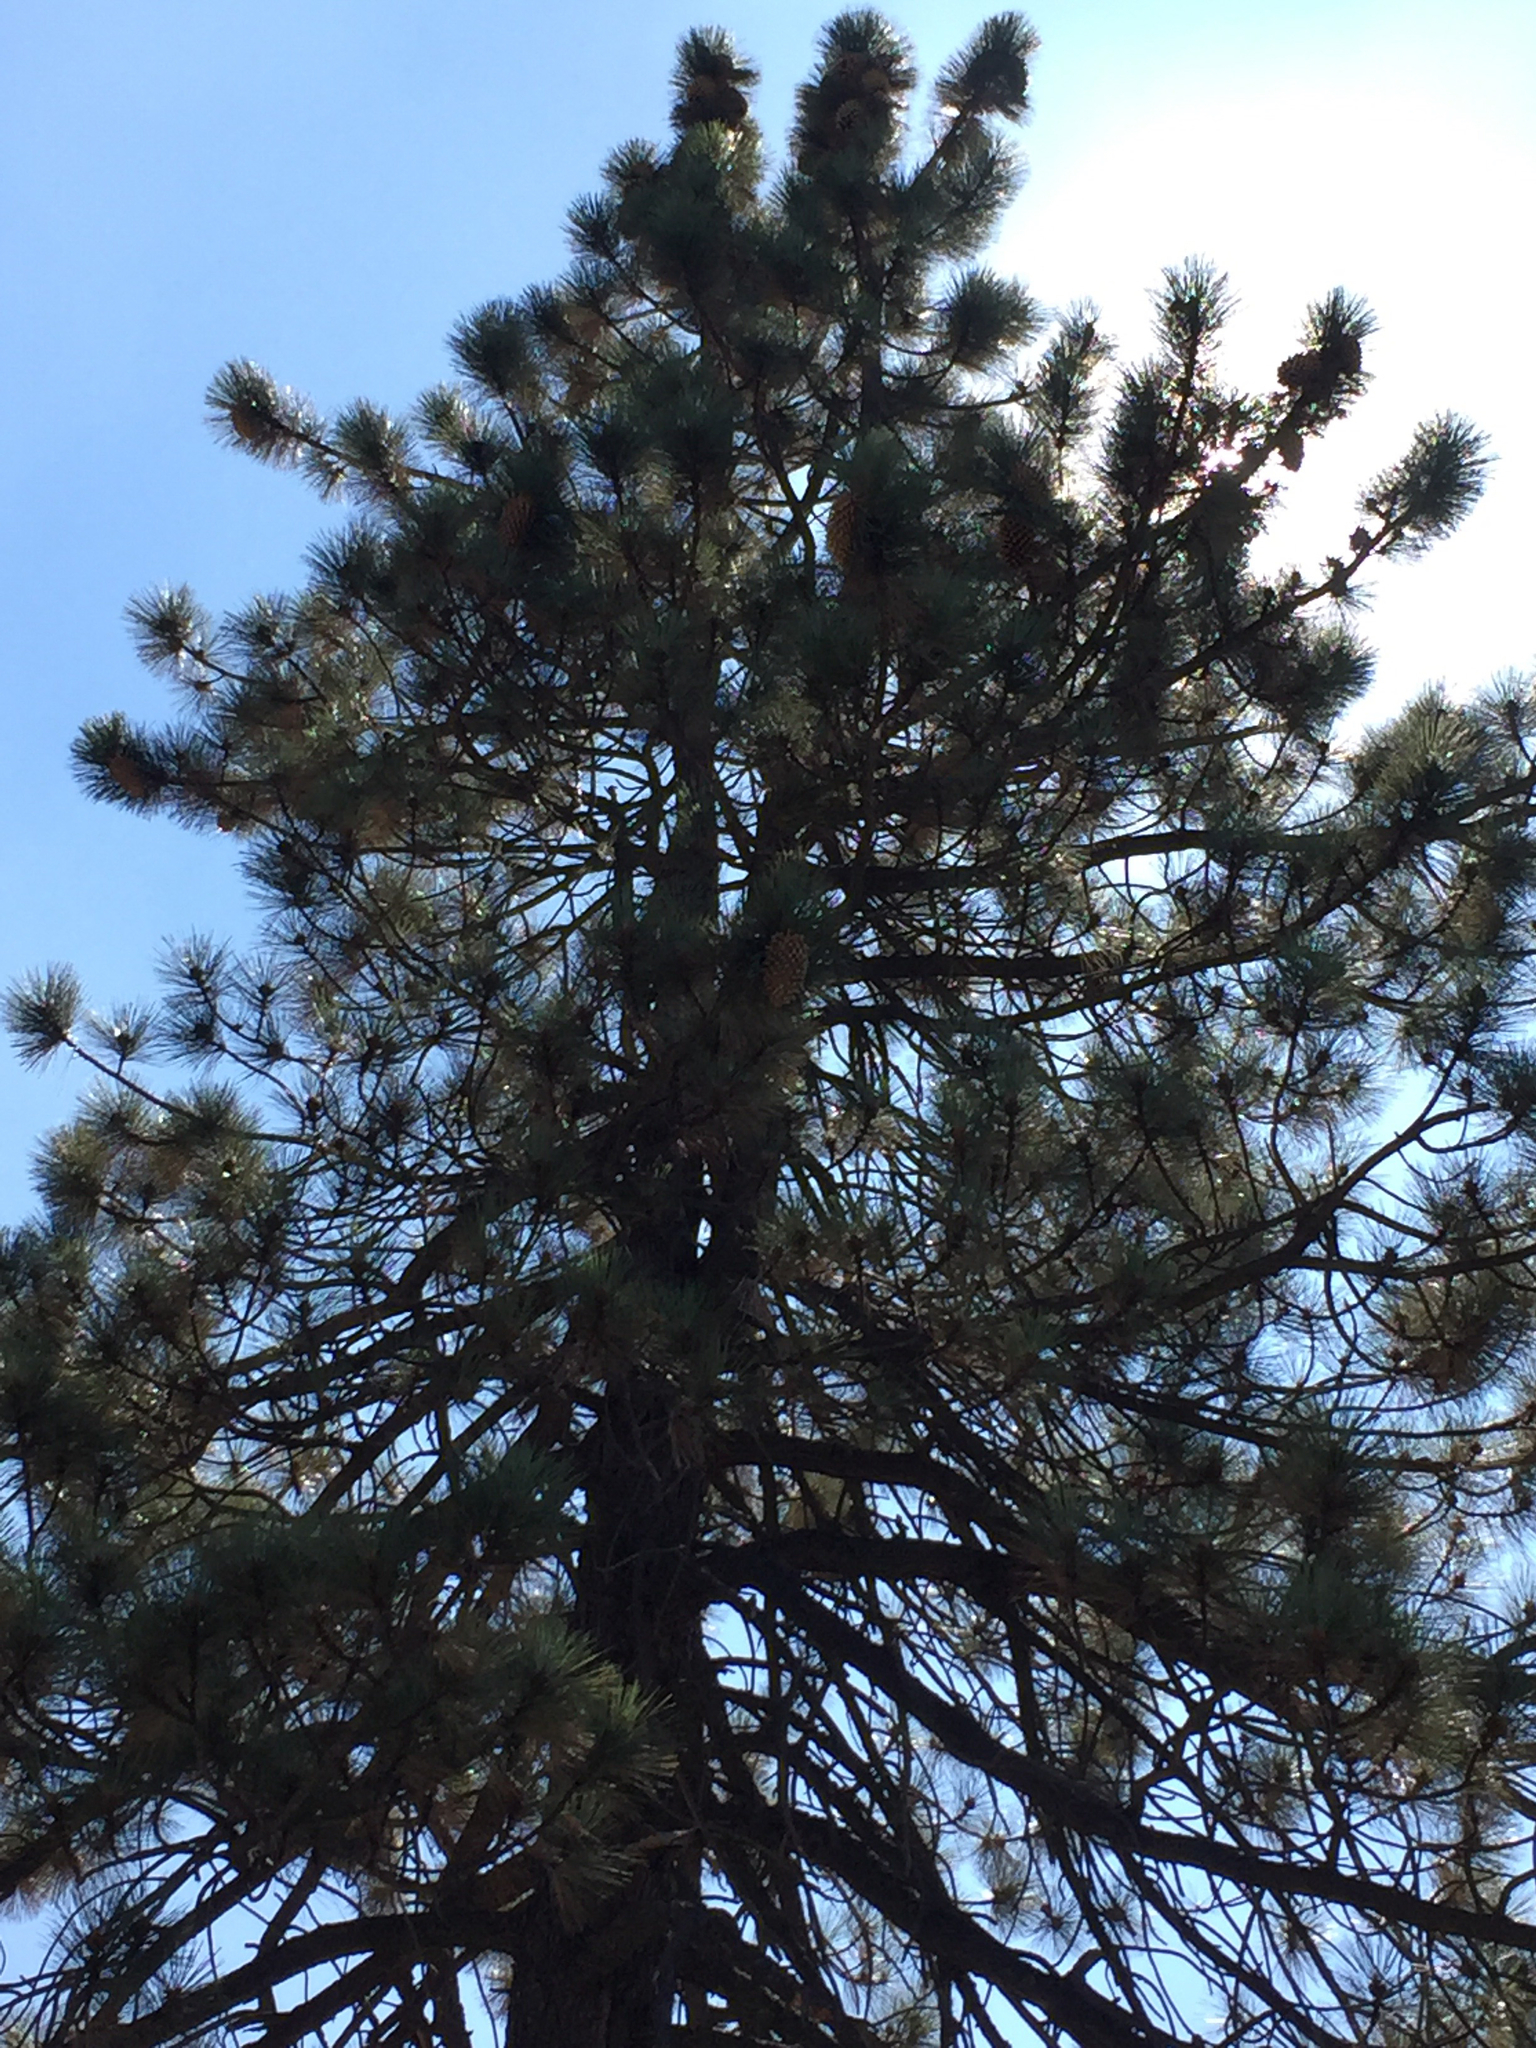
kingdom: Plantae
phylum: Tracheophyta
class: Pinopsida
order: Pinales
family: Pinaceae
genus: Pinus
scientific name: Pinus coulteri
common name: Coulter pine
